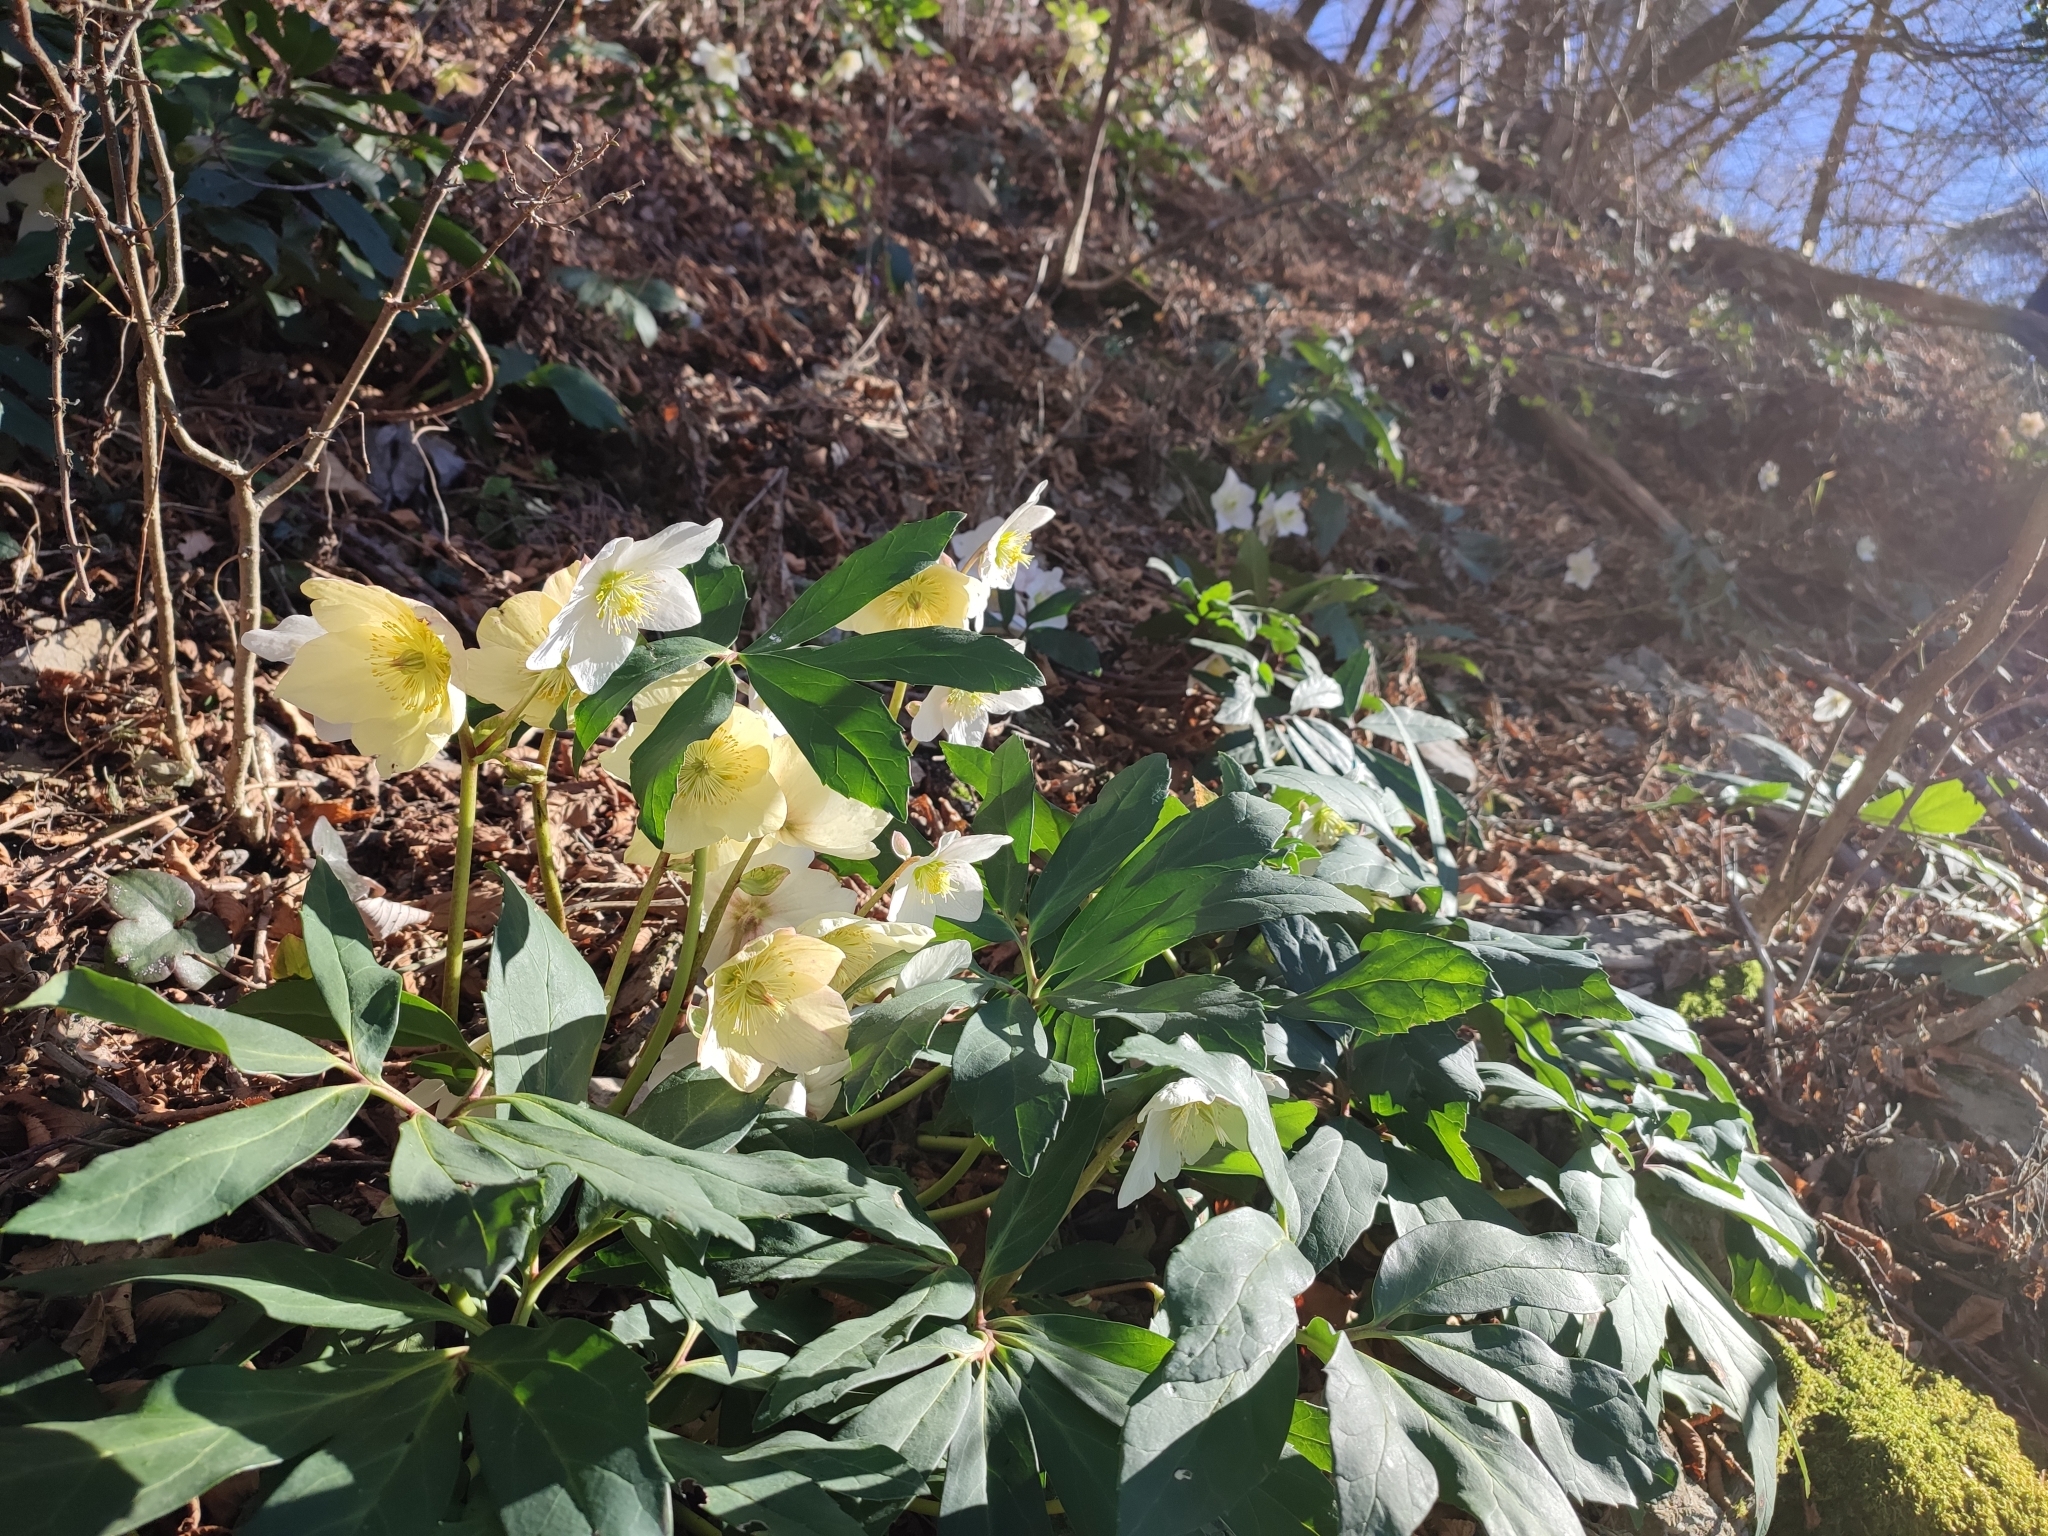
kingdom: Plantae
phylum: Tracheophyta
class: Magnoliopsida
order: Ranunculales
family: Ranunculaceae
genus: Helleborus
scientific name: Helleborus niger
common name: Black hellebore
